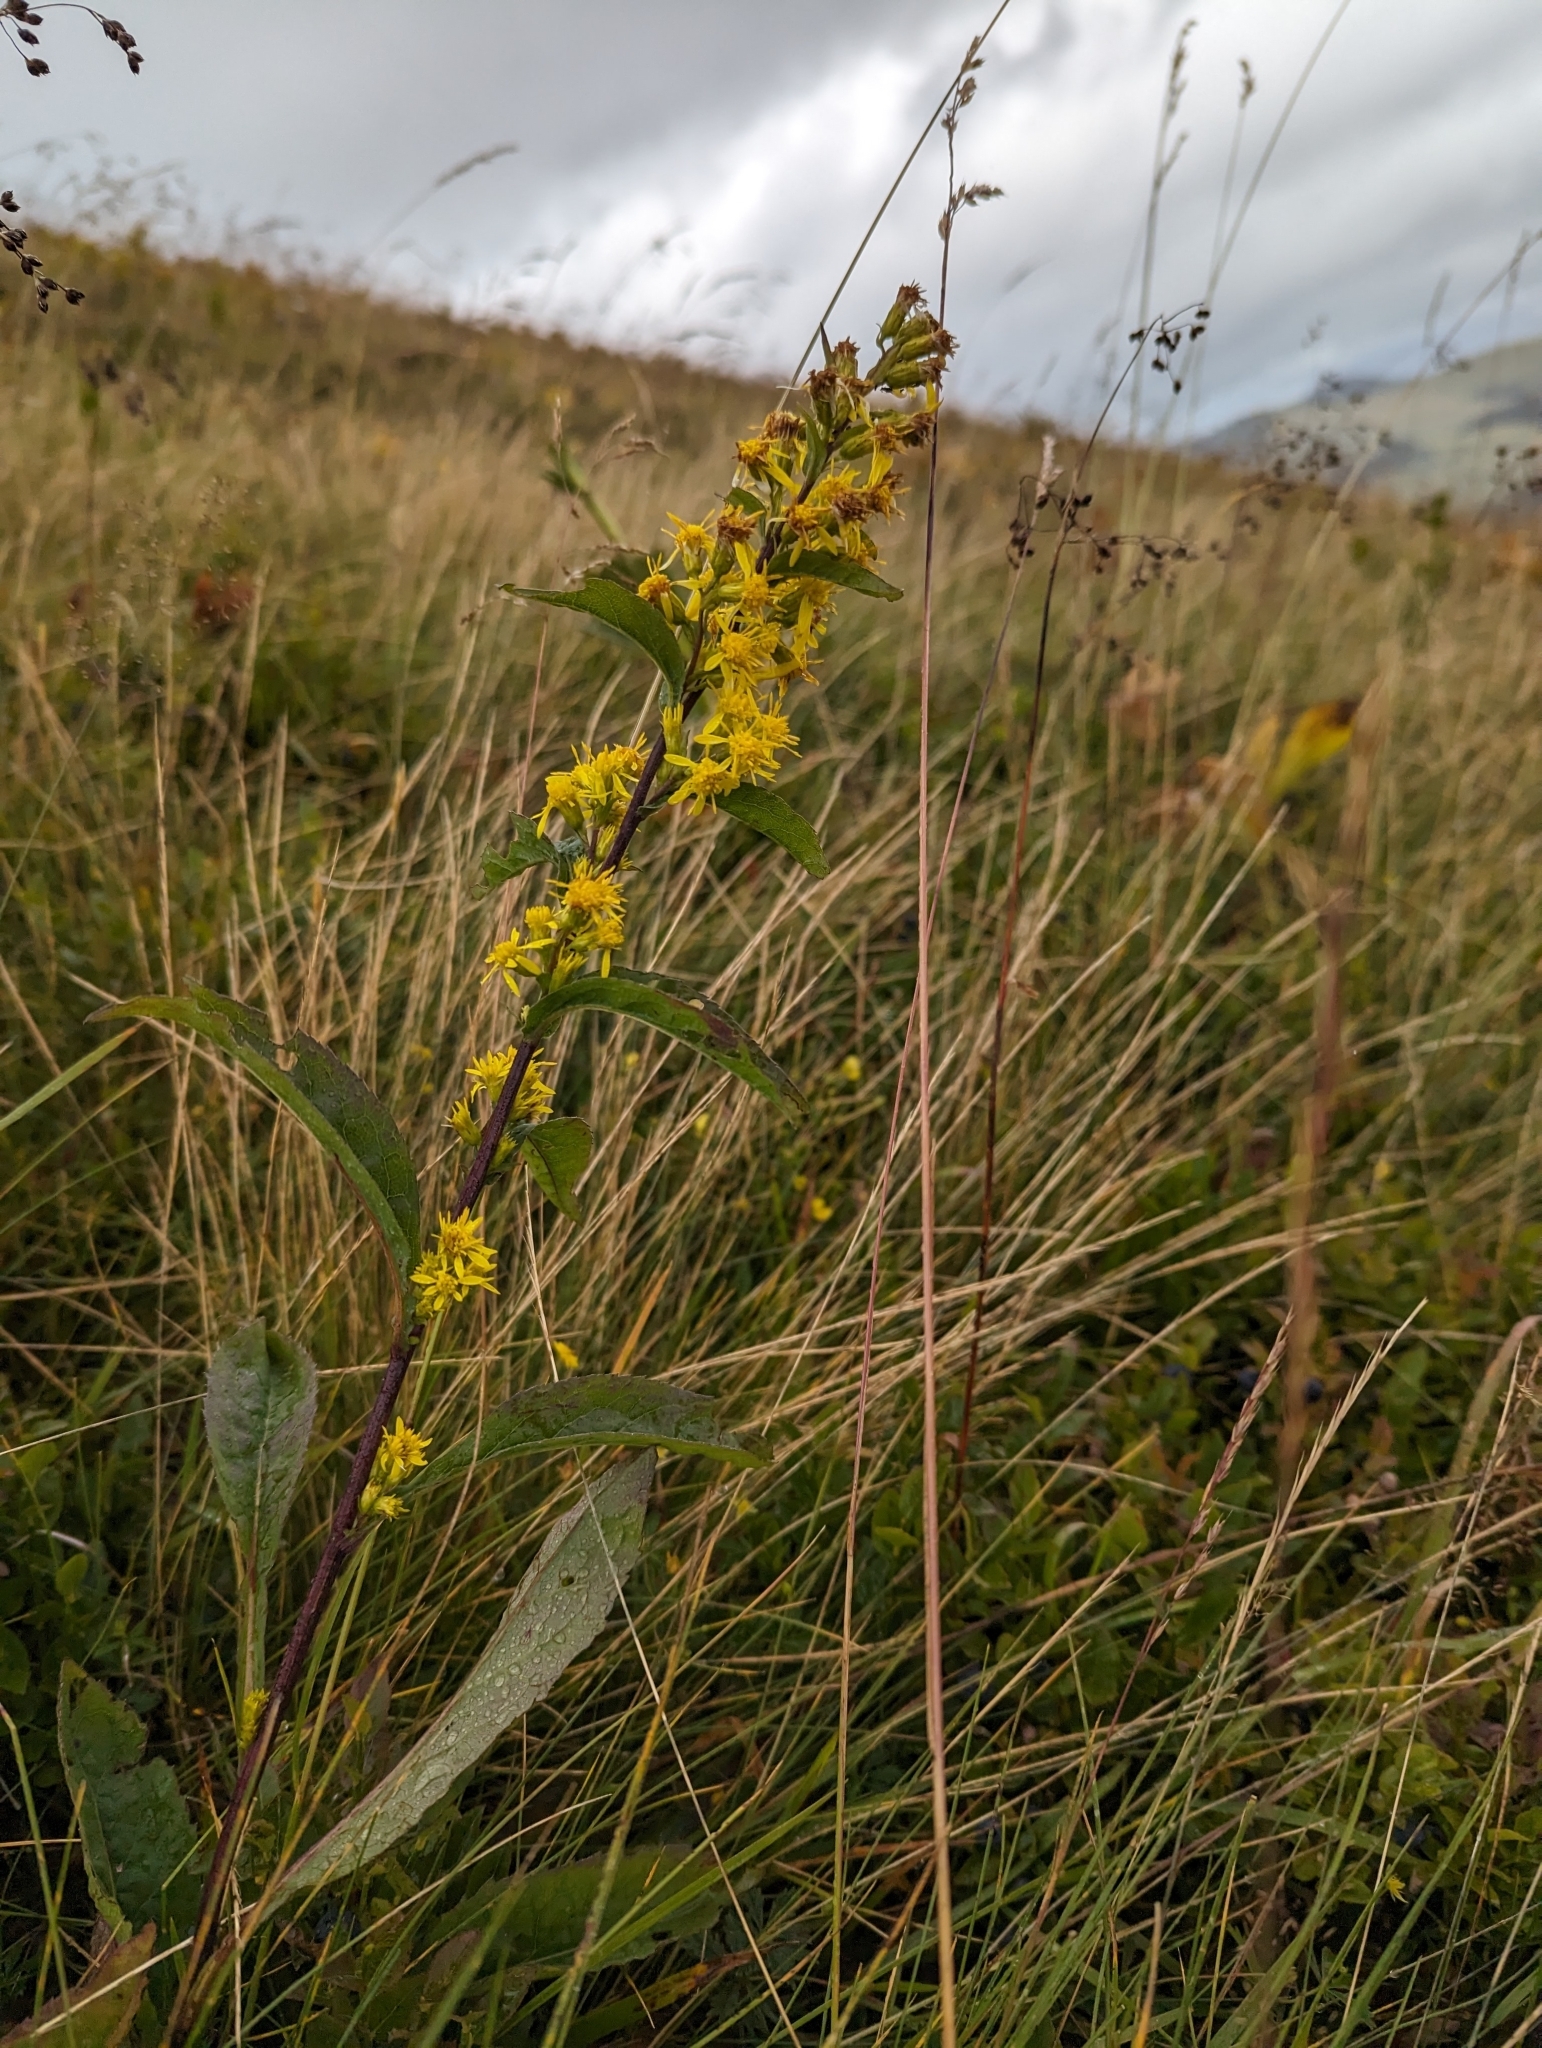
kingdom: Plantae
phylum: Tracheophyta
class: Magnoliopsida
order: Asterales
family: Asteraceae
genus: Solidago
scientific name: Solidago virgaurea
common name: Goldenrod
